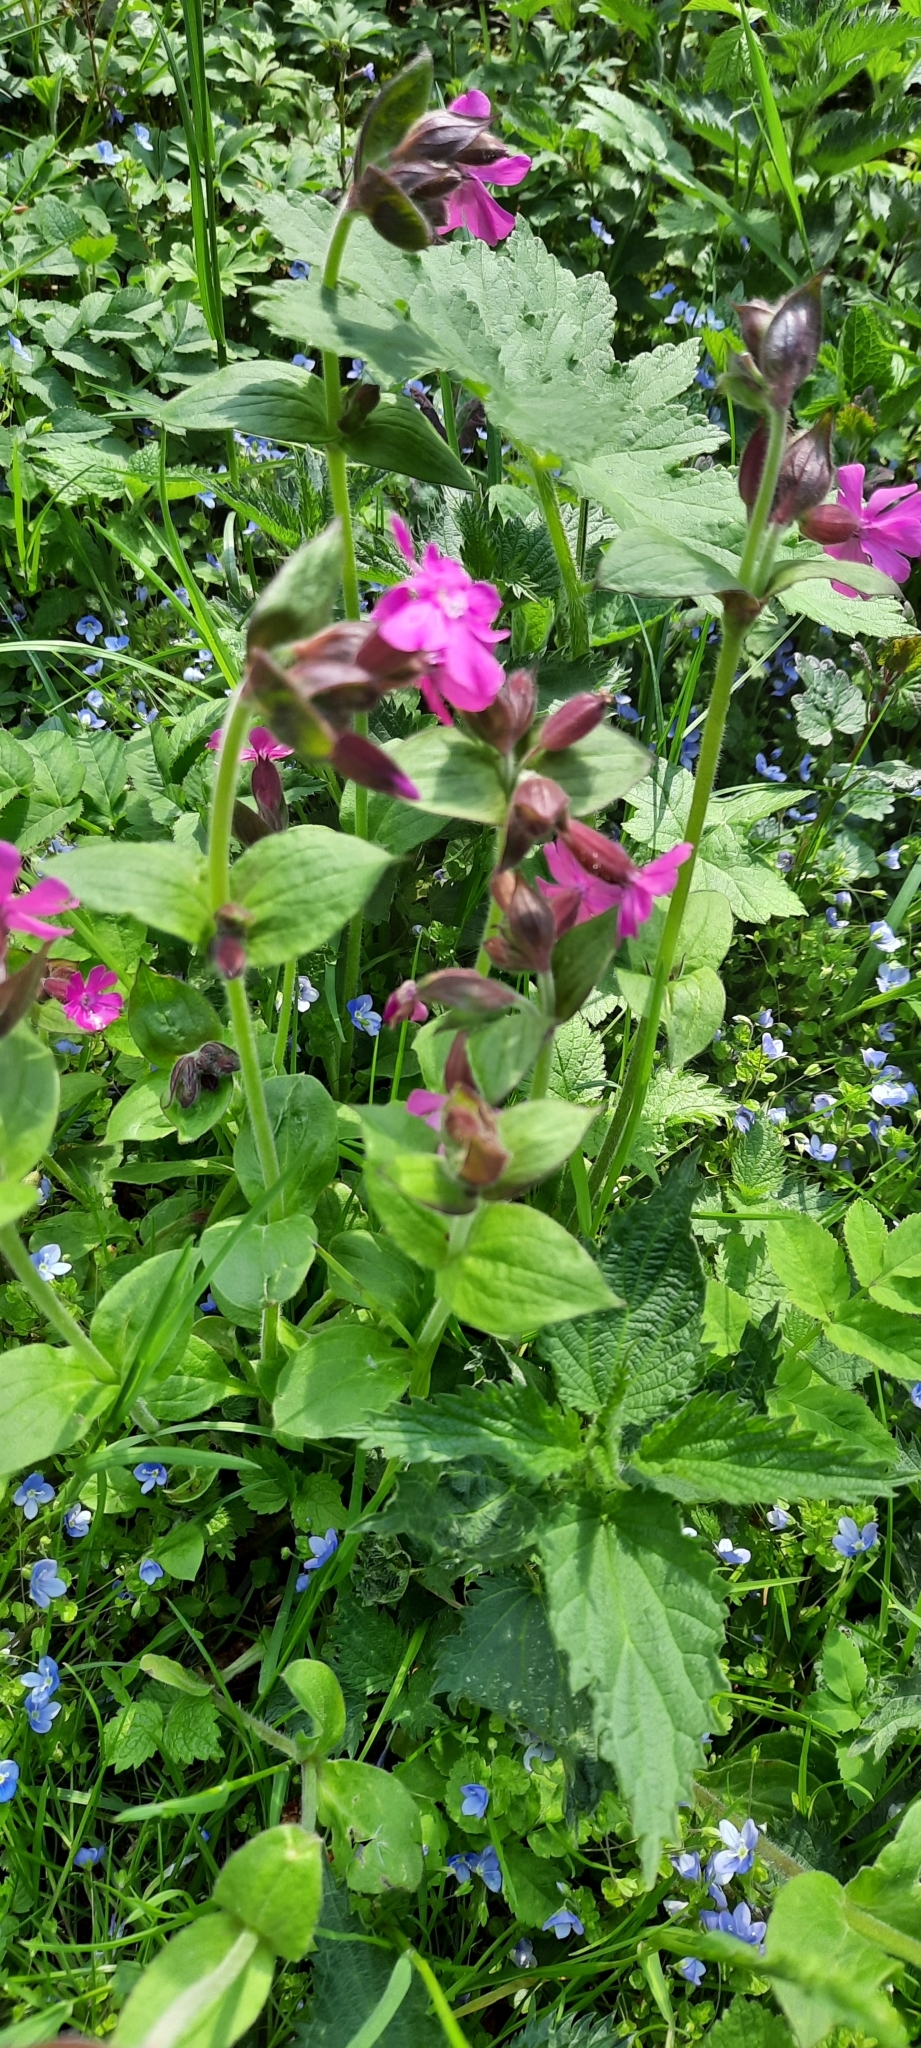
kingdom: Plantae
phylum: Tracheophyta
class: Magnoliopsida
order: Caryophyllales
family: Caryophyllaceae
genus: Silene
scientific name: Silene dioica
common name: Red campion
